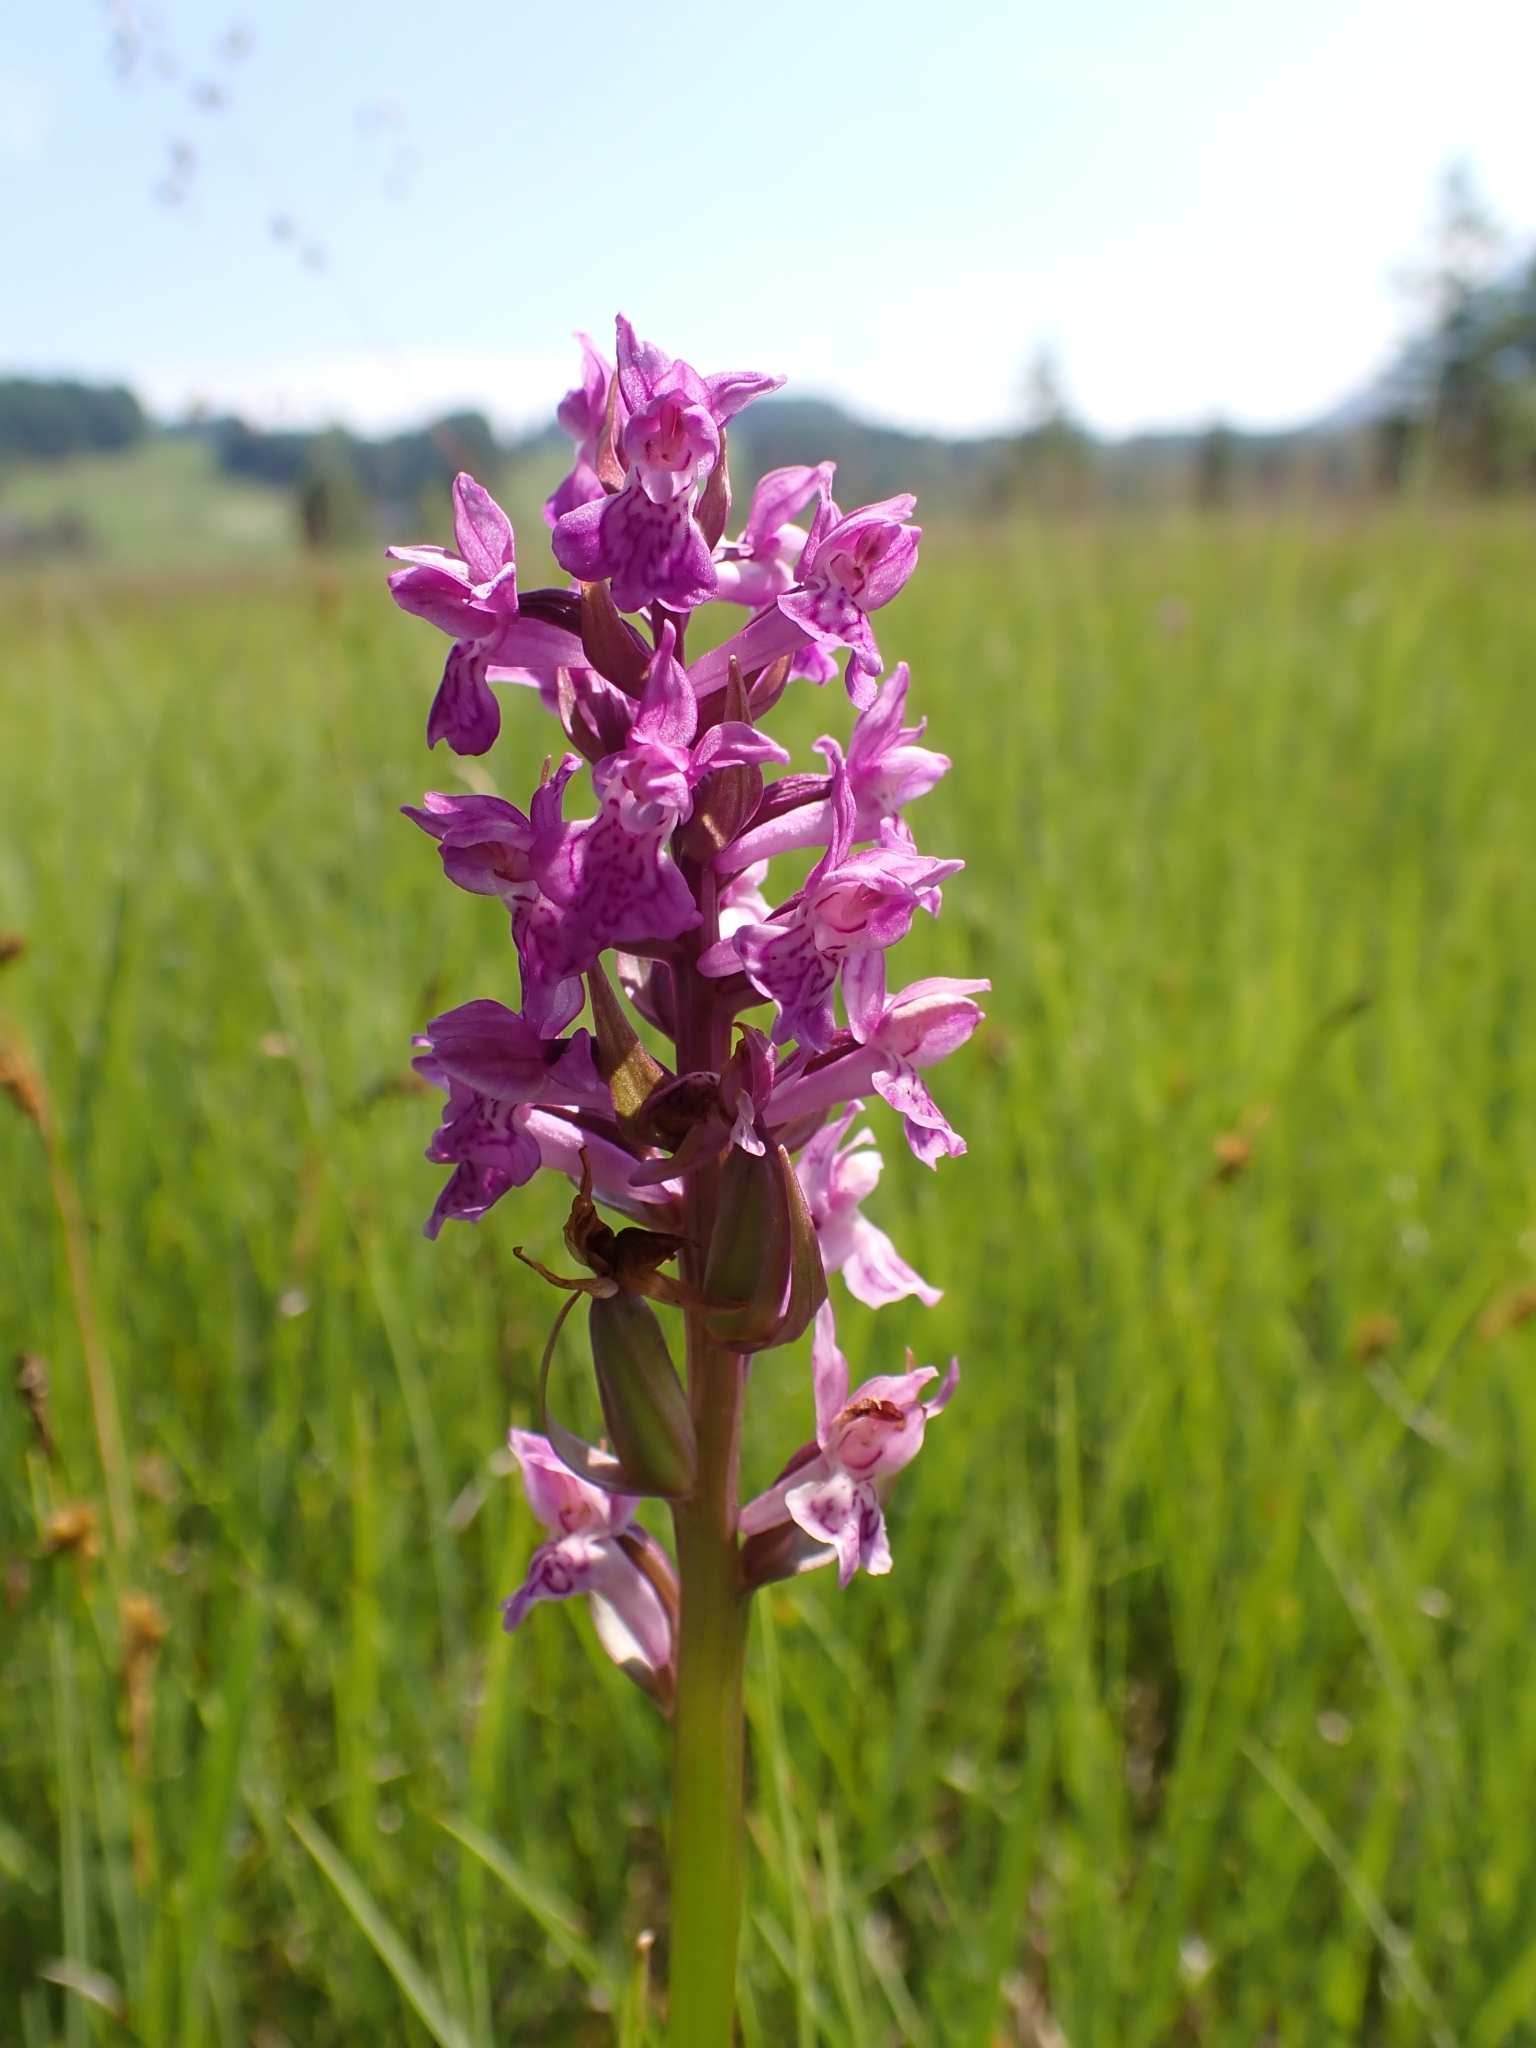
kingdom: Plantae
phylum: Tracheophyta
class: Liliopsida
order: Asparagales
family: Orchidaceae
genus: Dactylorhiza
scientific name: Dactylorhiza incarnata
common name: Early marsh-orchid
